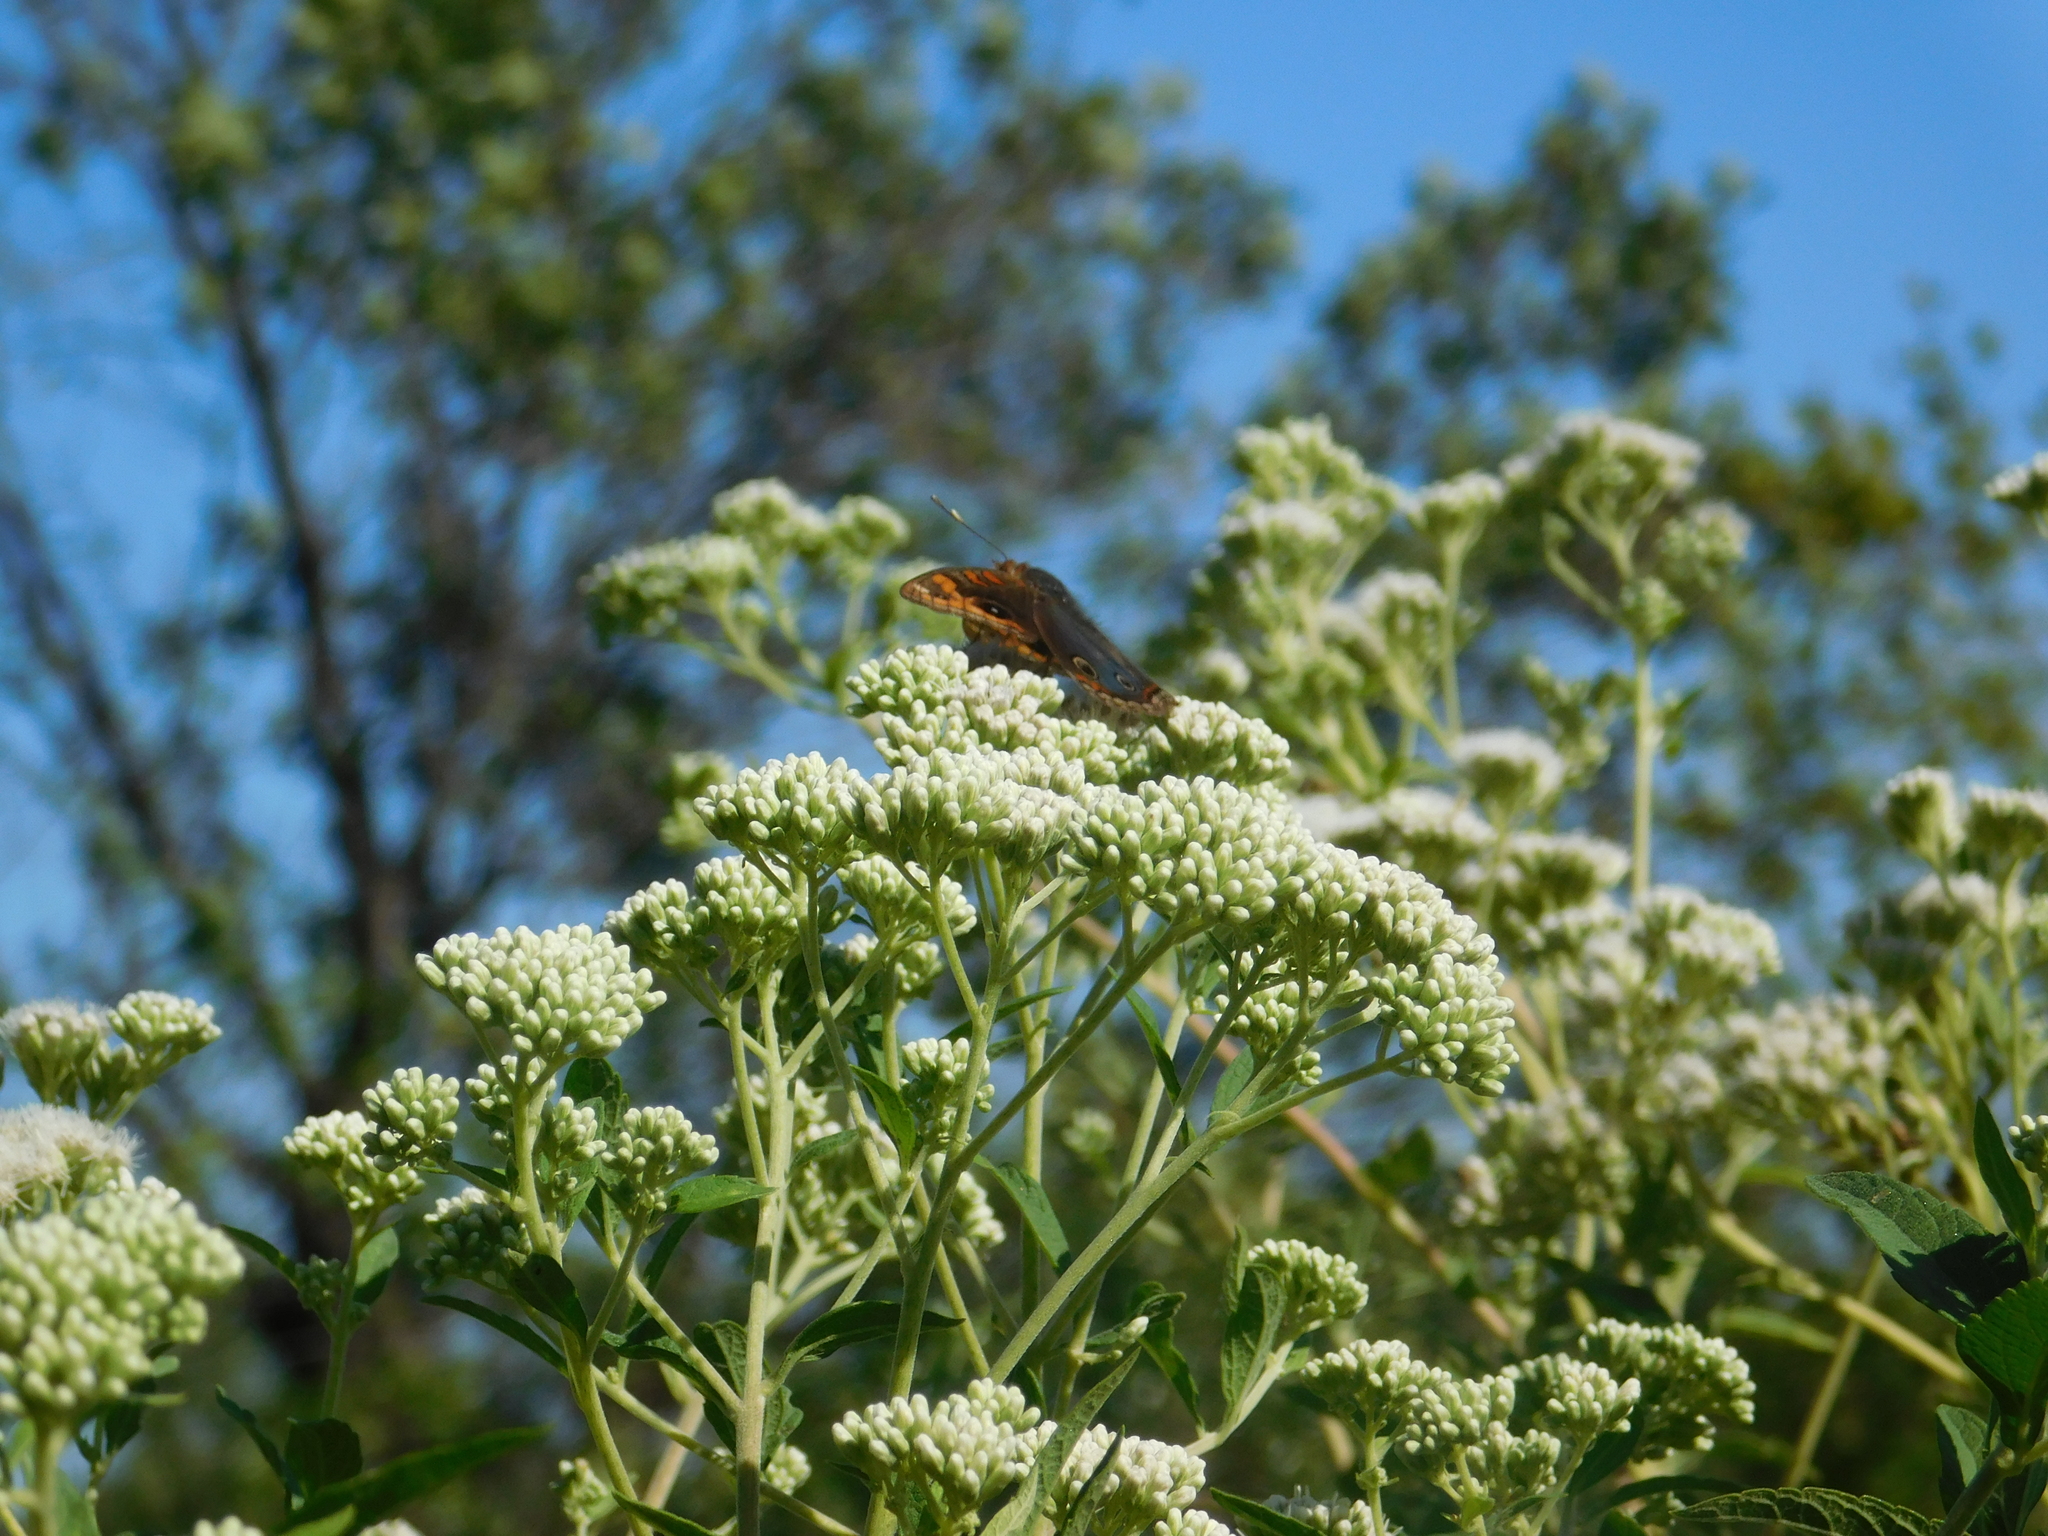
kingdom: Animalia
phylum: Arthropoda
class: Insecta
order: Lepidoptera
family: Nymphalidae
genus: Junonia
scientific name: Junonia lavinia
